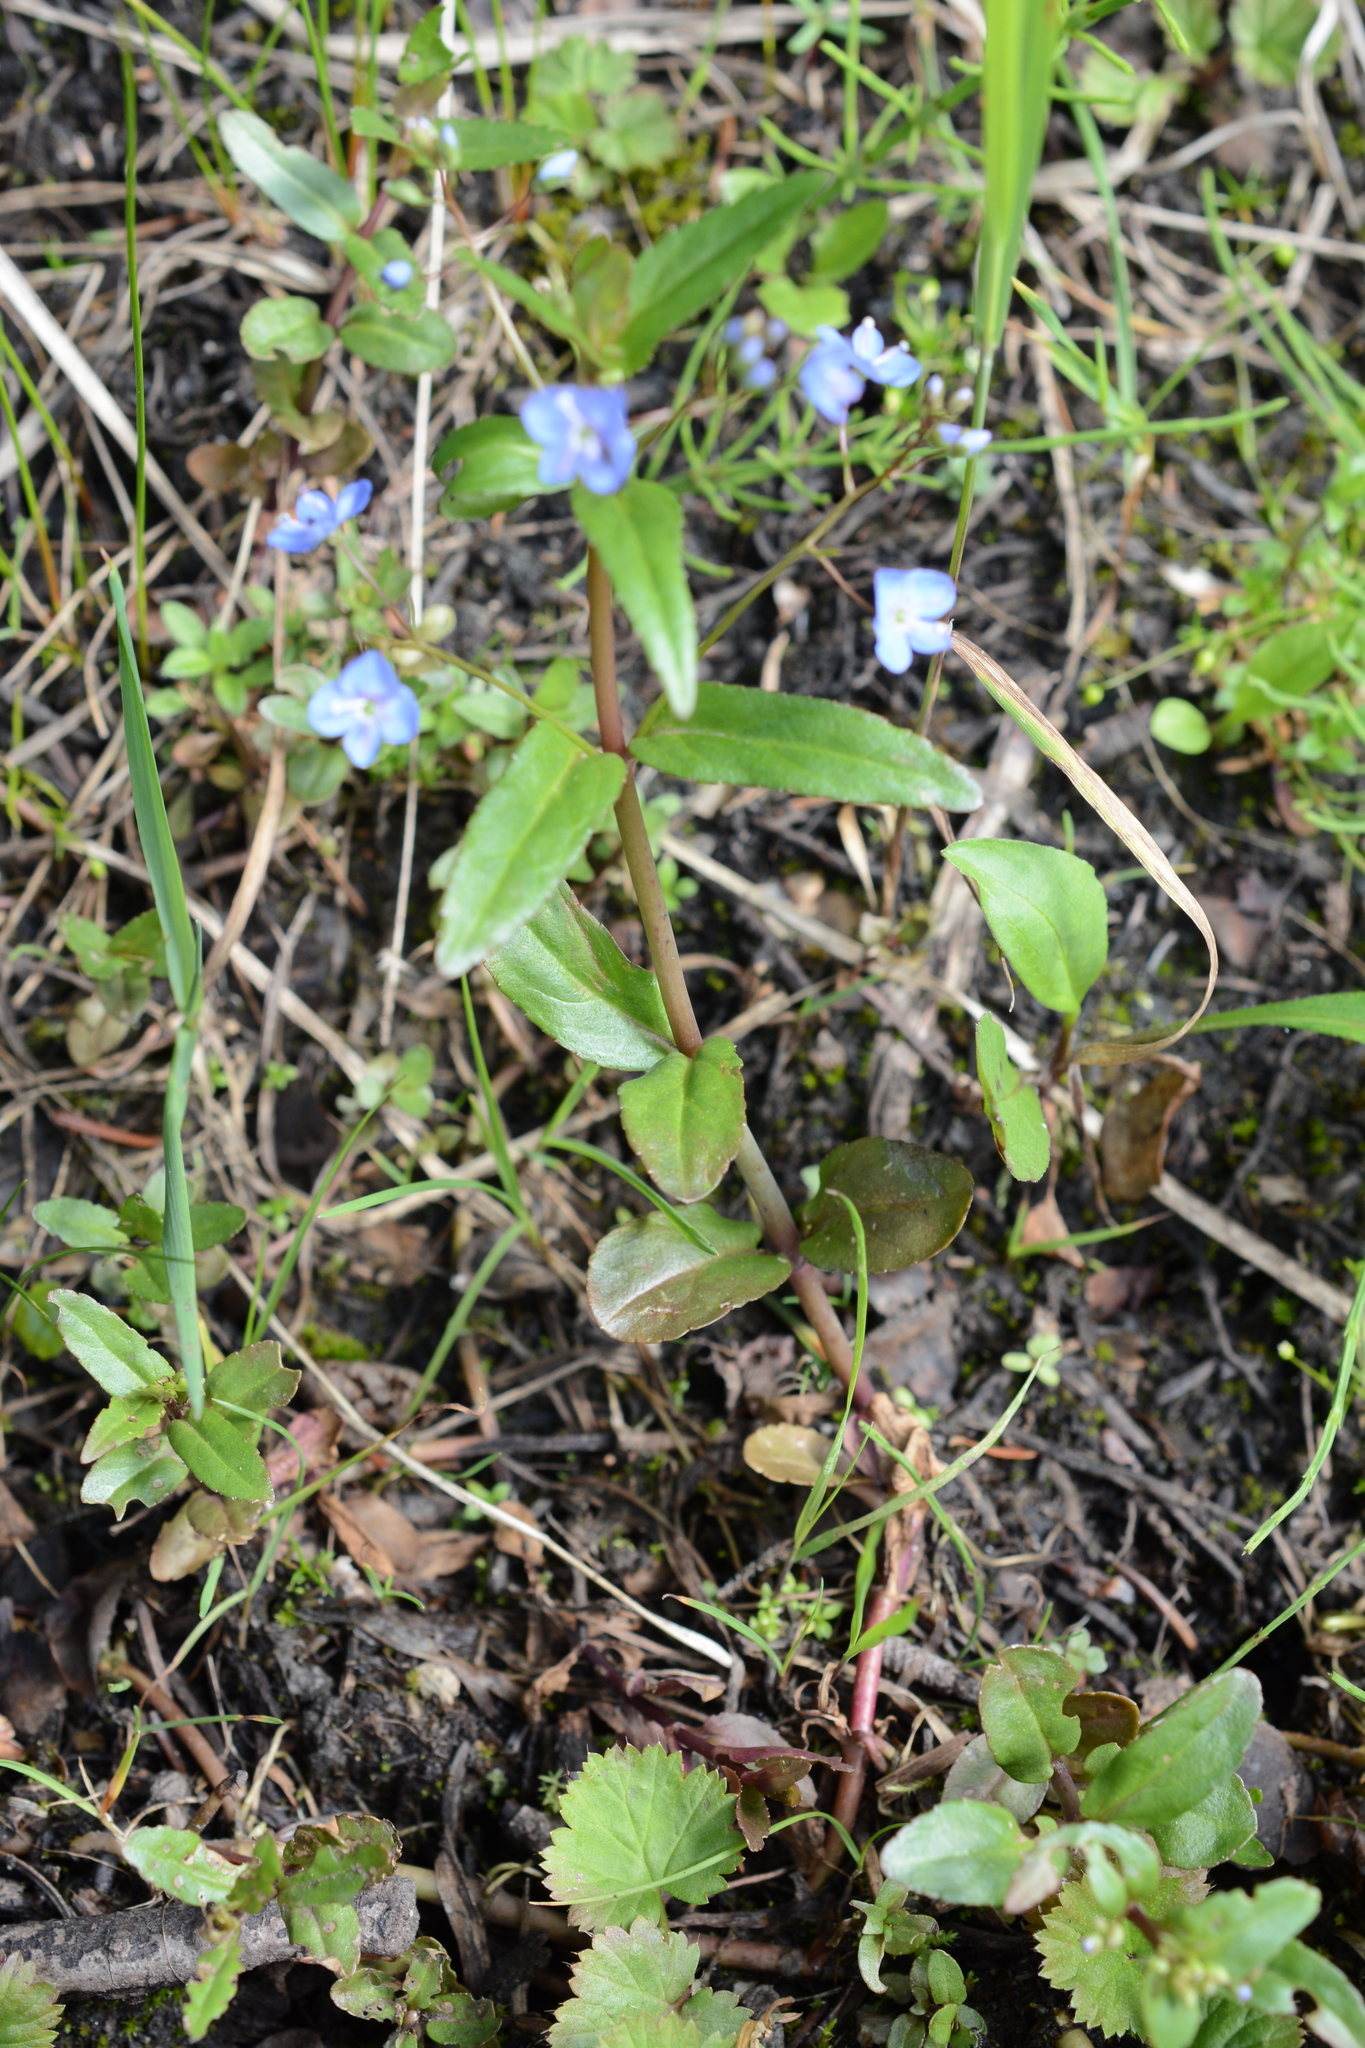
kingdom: Plantae
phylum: Tracheophyta
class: Magnoliopsida
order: Lamiales
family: Plantaginaceae
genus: Veronica
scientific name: Veronica americana
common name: American brooklime
